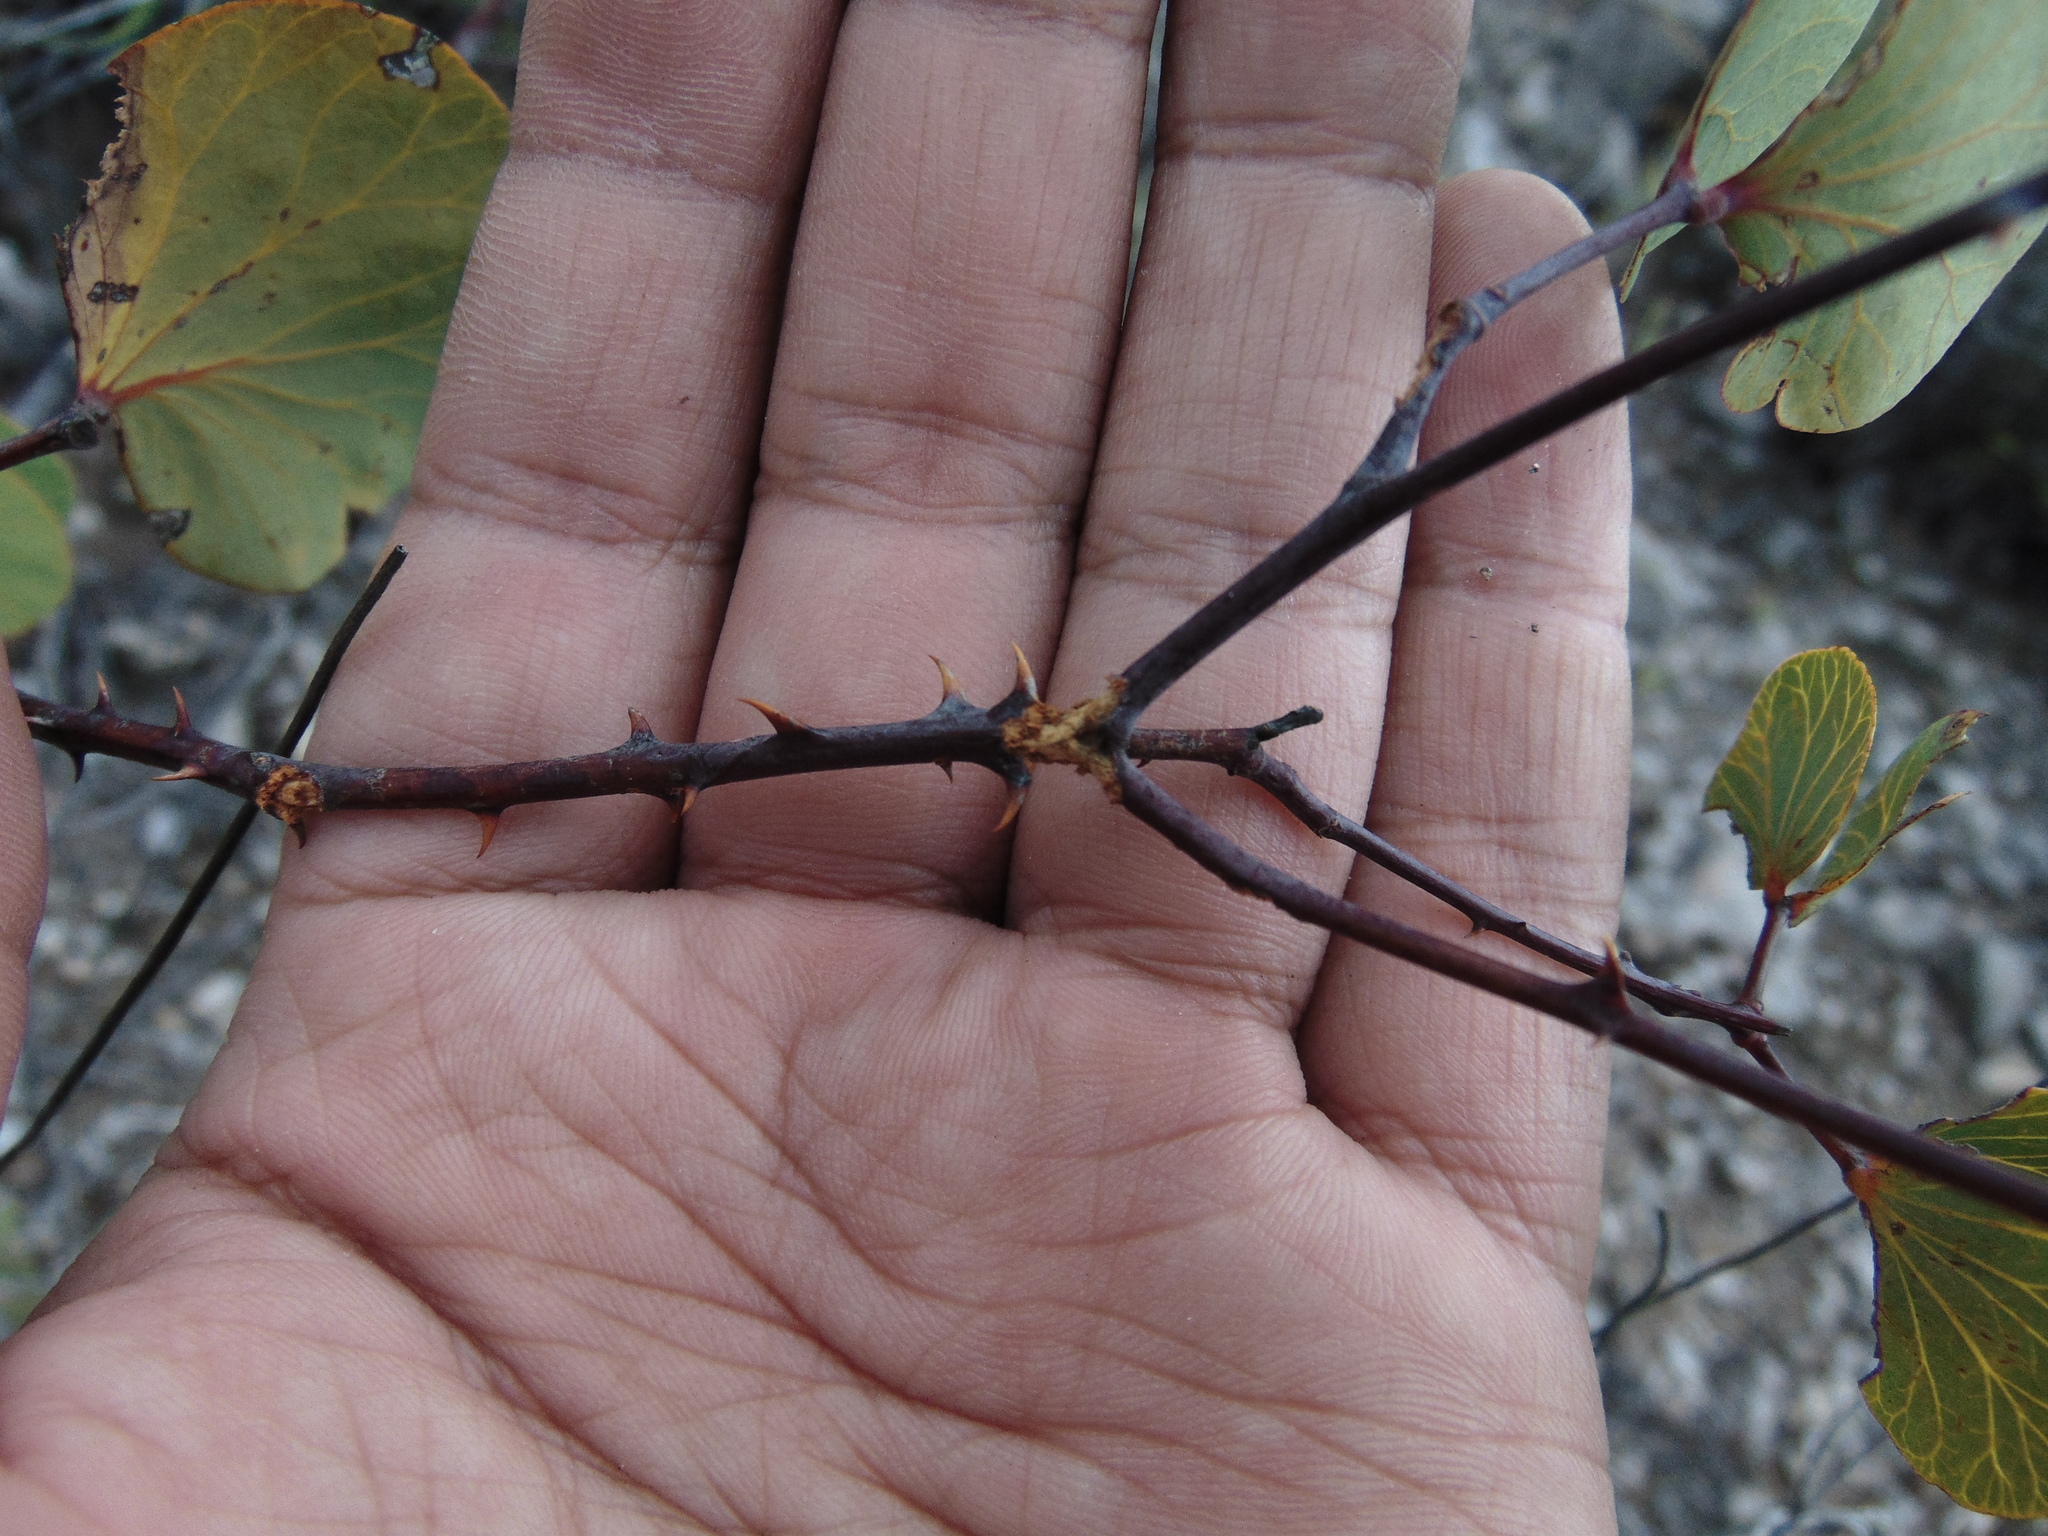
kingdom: Plantae
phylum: Tracheophyta
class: Magnoliopsida
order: Fabales
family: Fabaceae
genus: Senegalia
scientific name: Senegalia crassifolia
